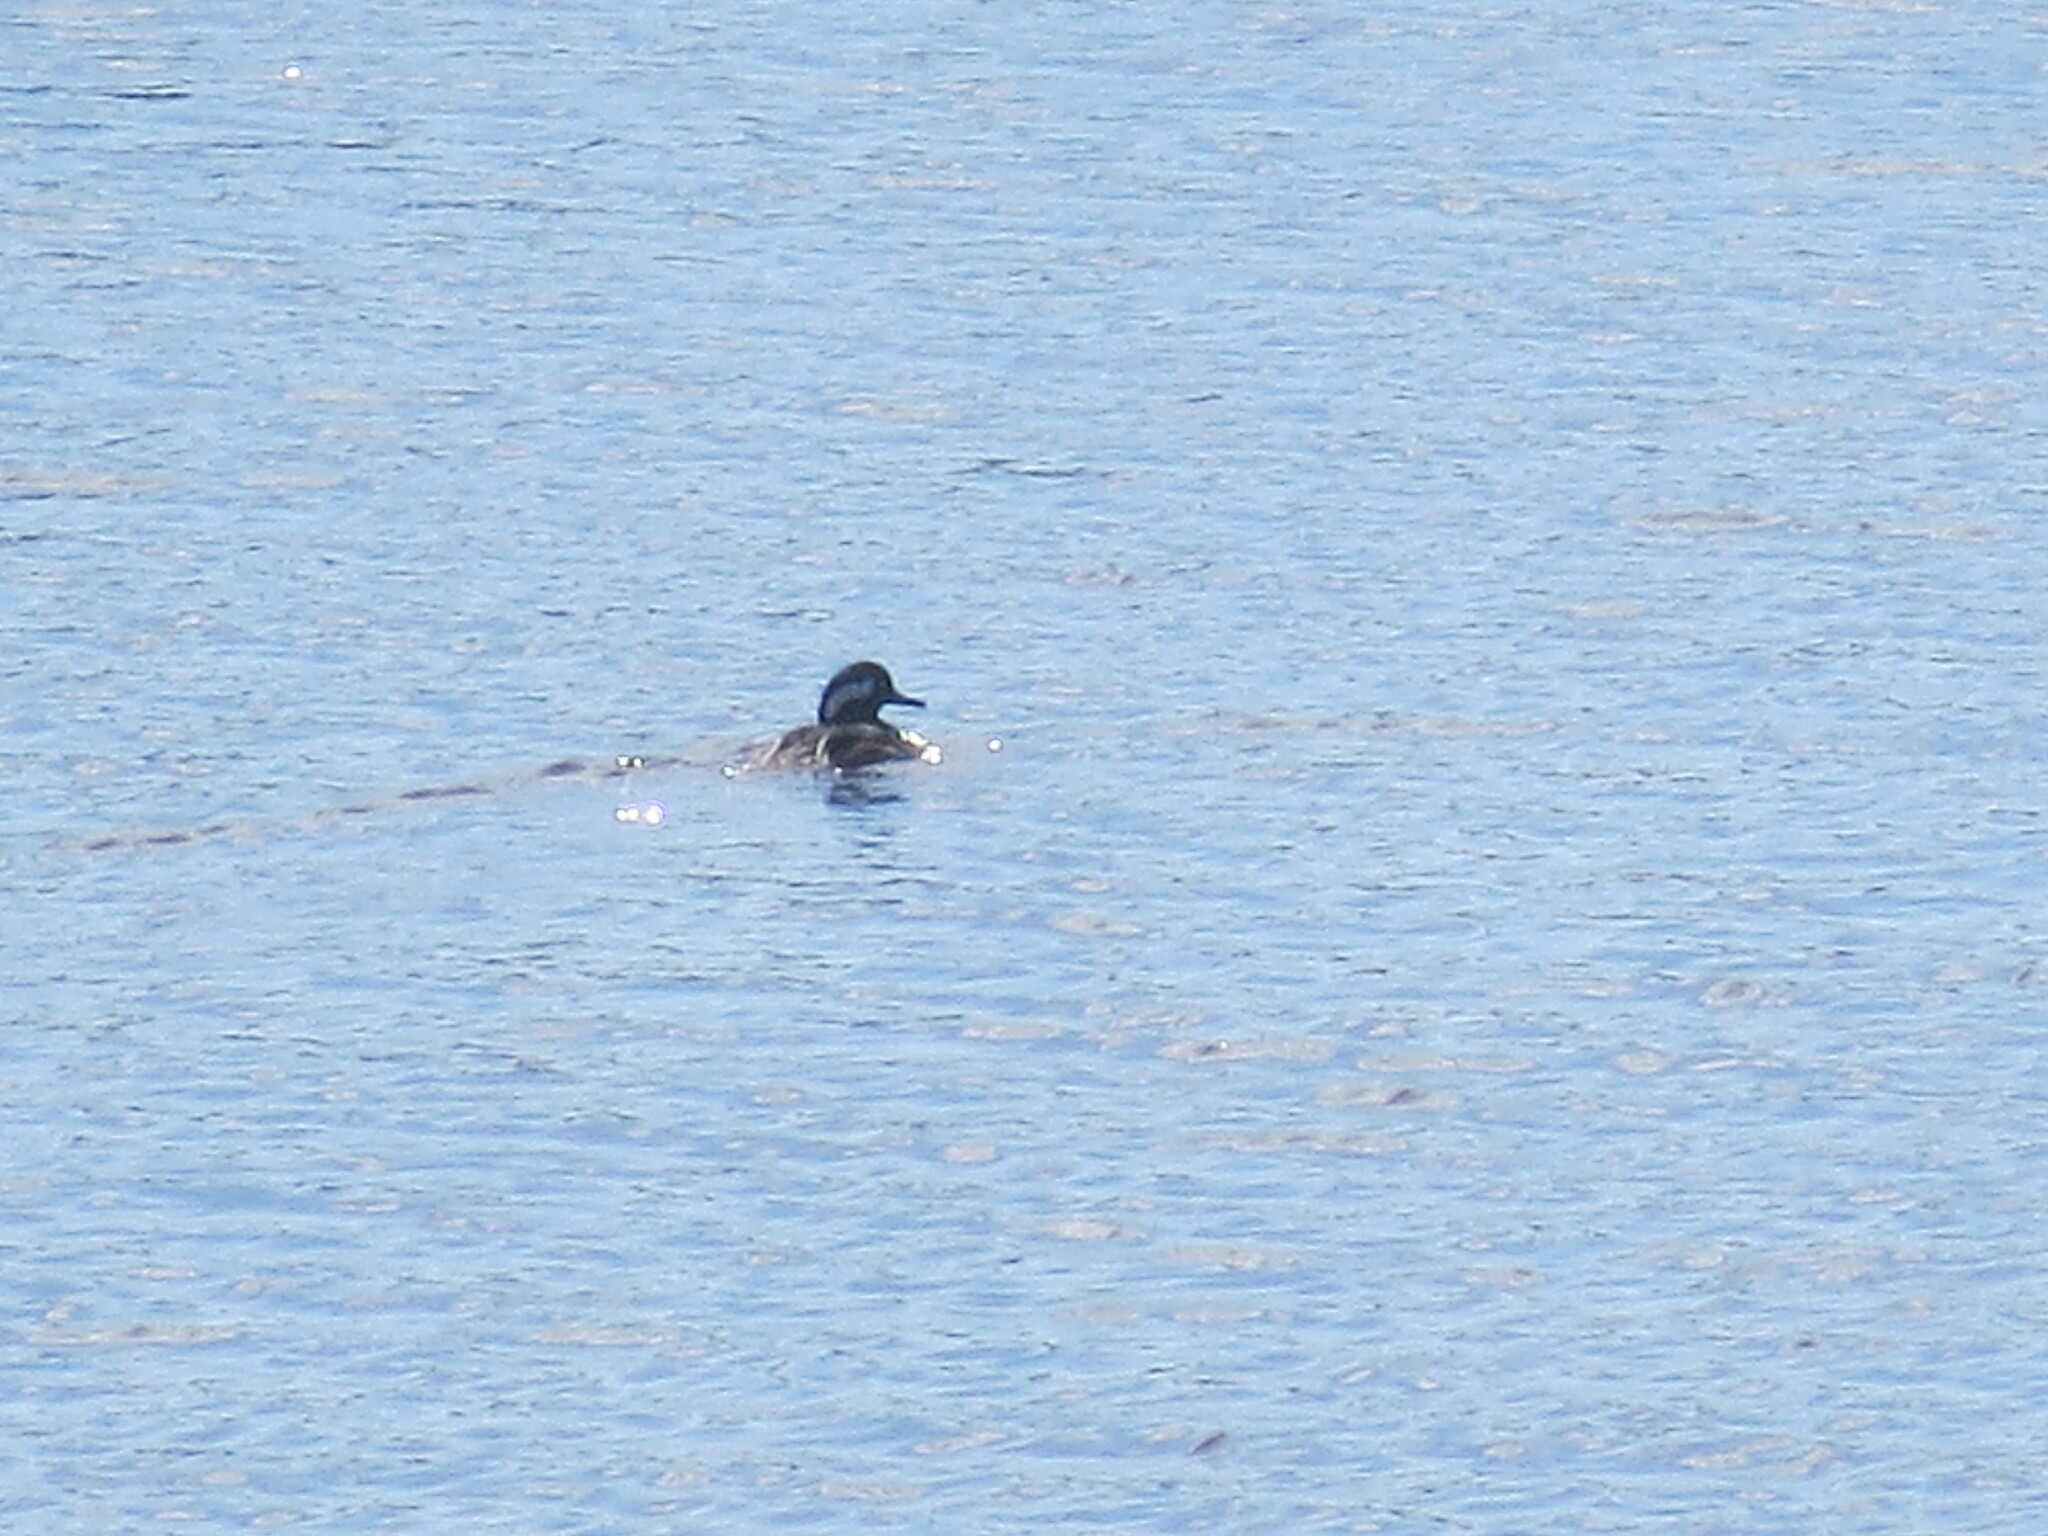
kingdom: Animalia
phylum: Chordata
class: Aves
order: Anseriformes
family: Anatidae
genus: Lophodytes
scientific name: Lophodytes cucullatus
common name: Hooded merganser
